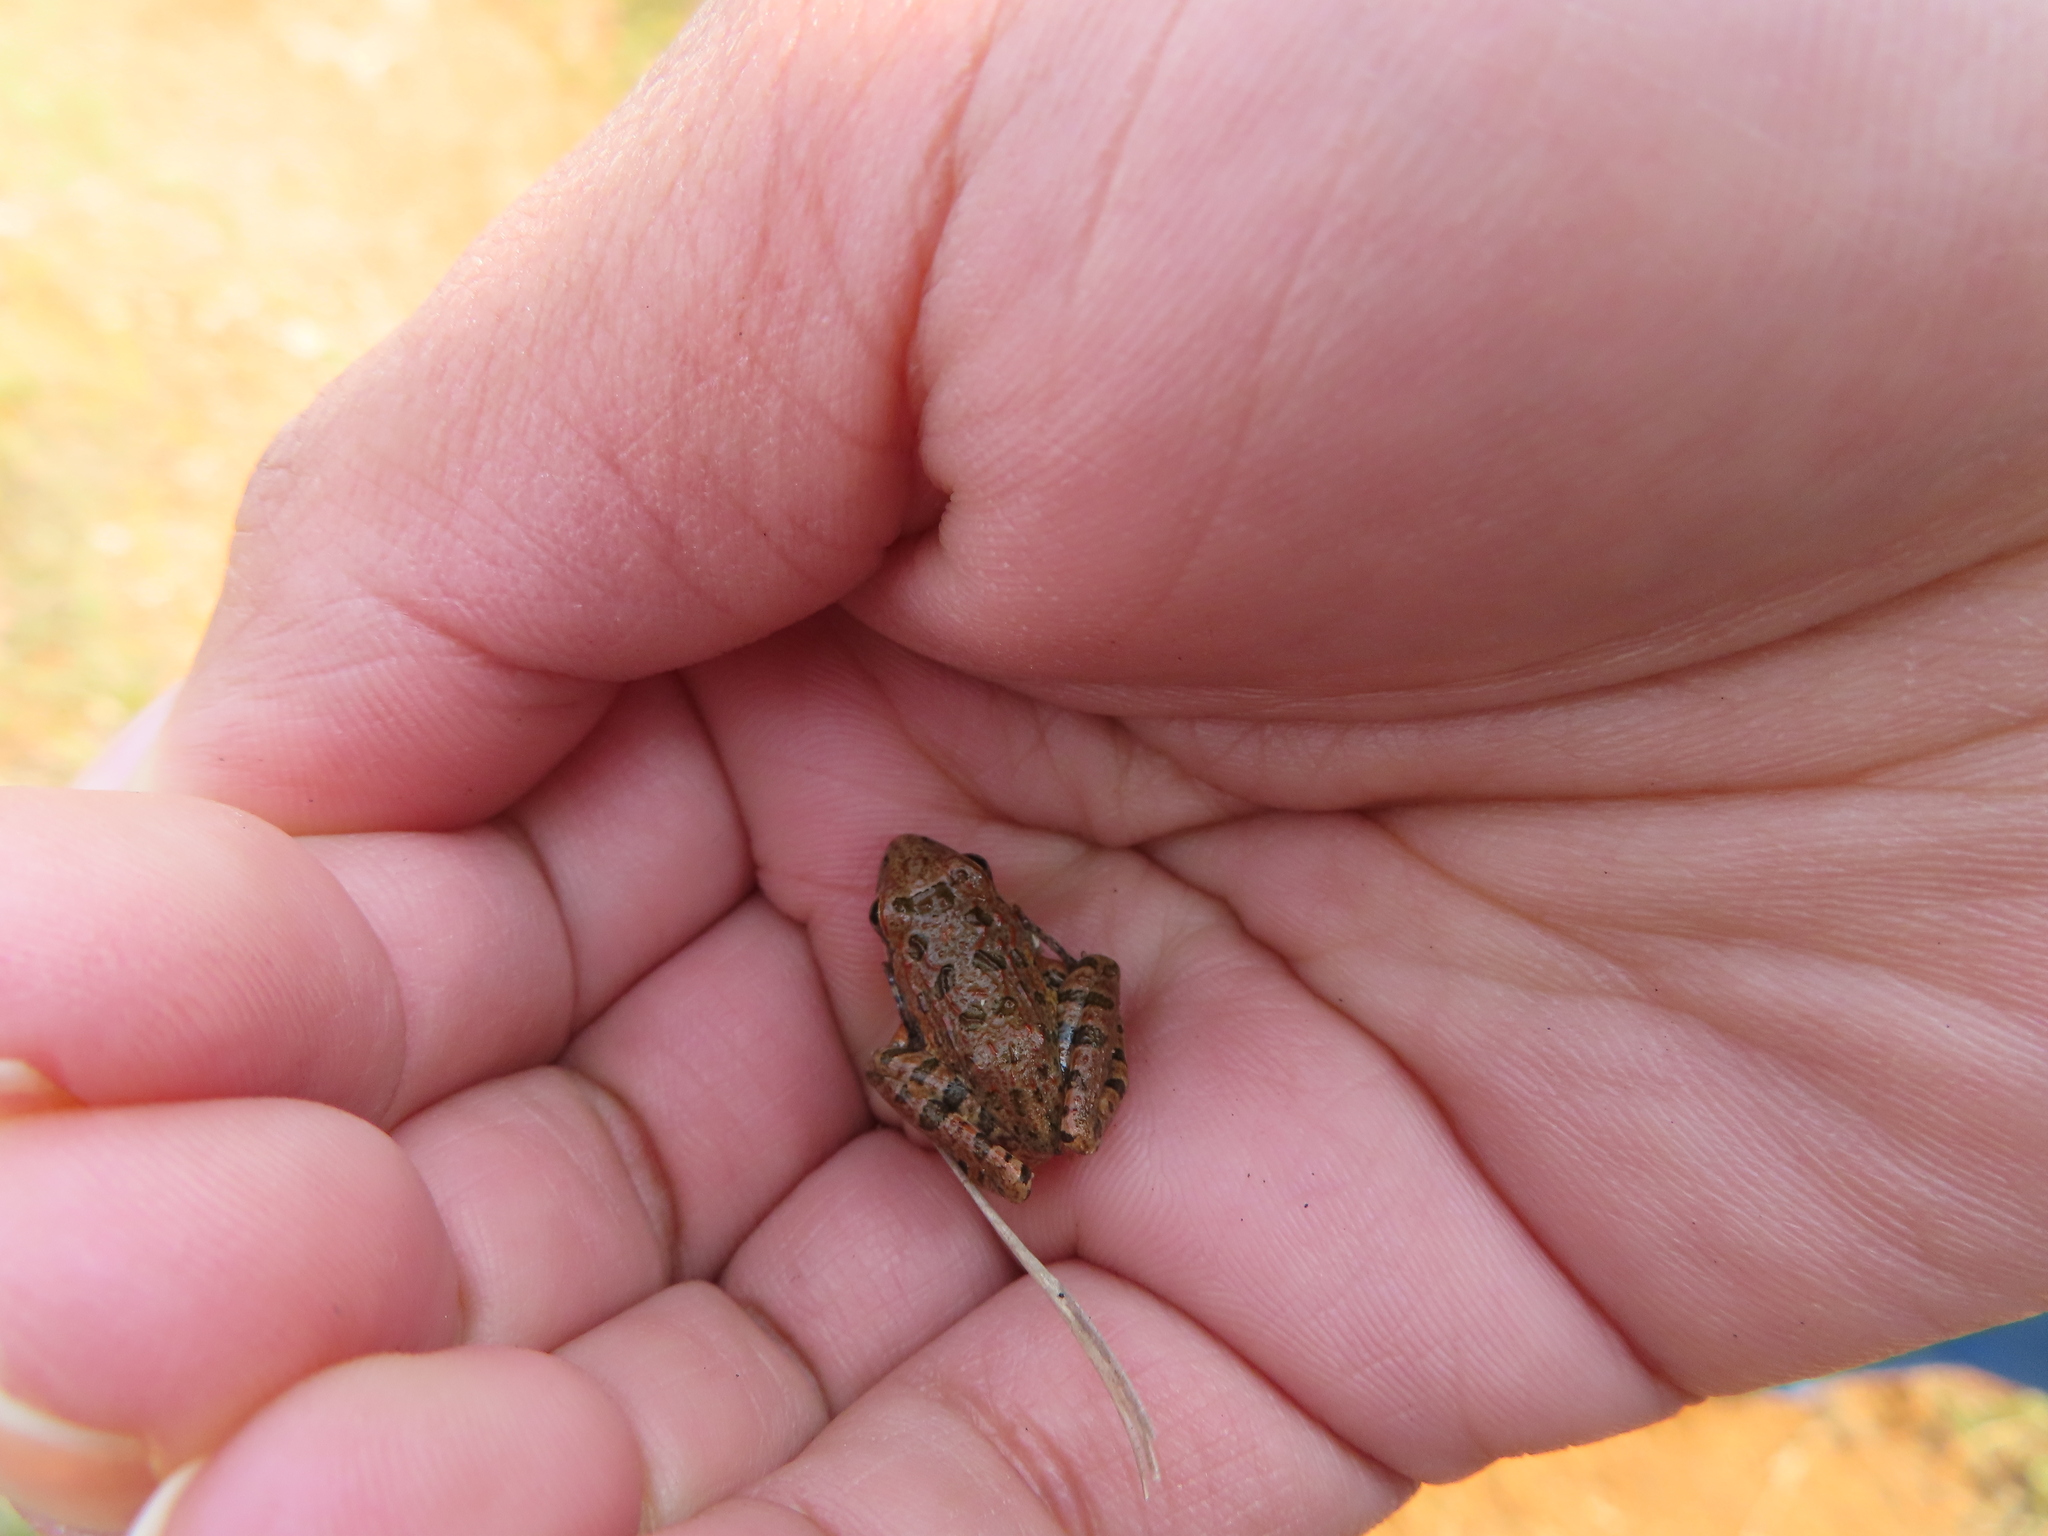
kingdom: Animalia
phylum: Chordata
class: Amphibia
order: Anura
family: Pyxicephalidae
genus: Strongylopus
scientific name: Strongylopus grayii
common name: Gray's stream frog
